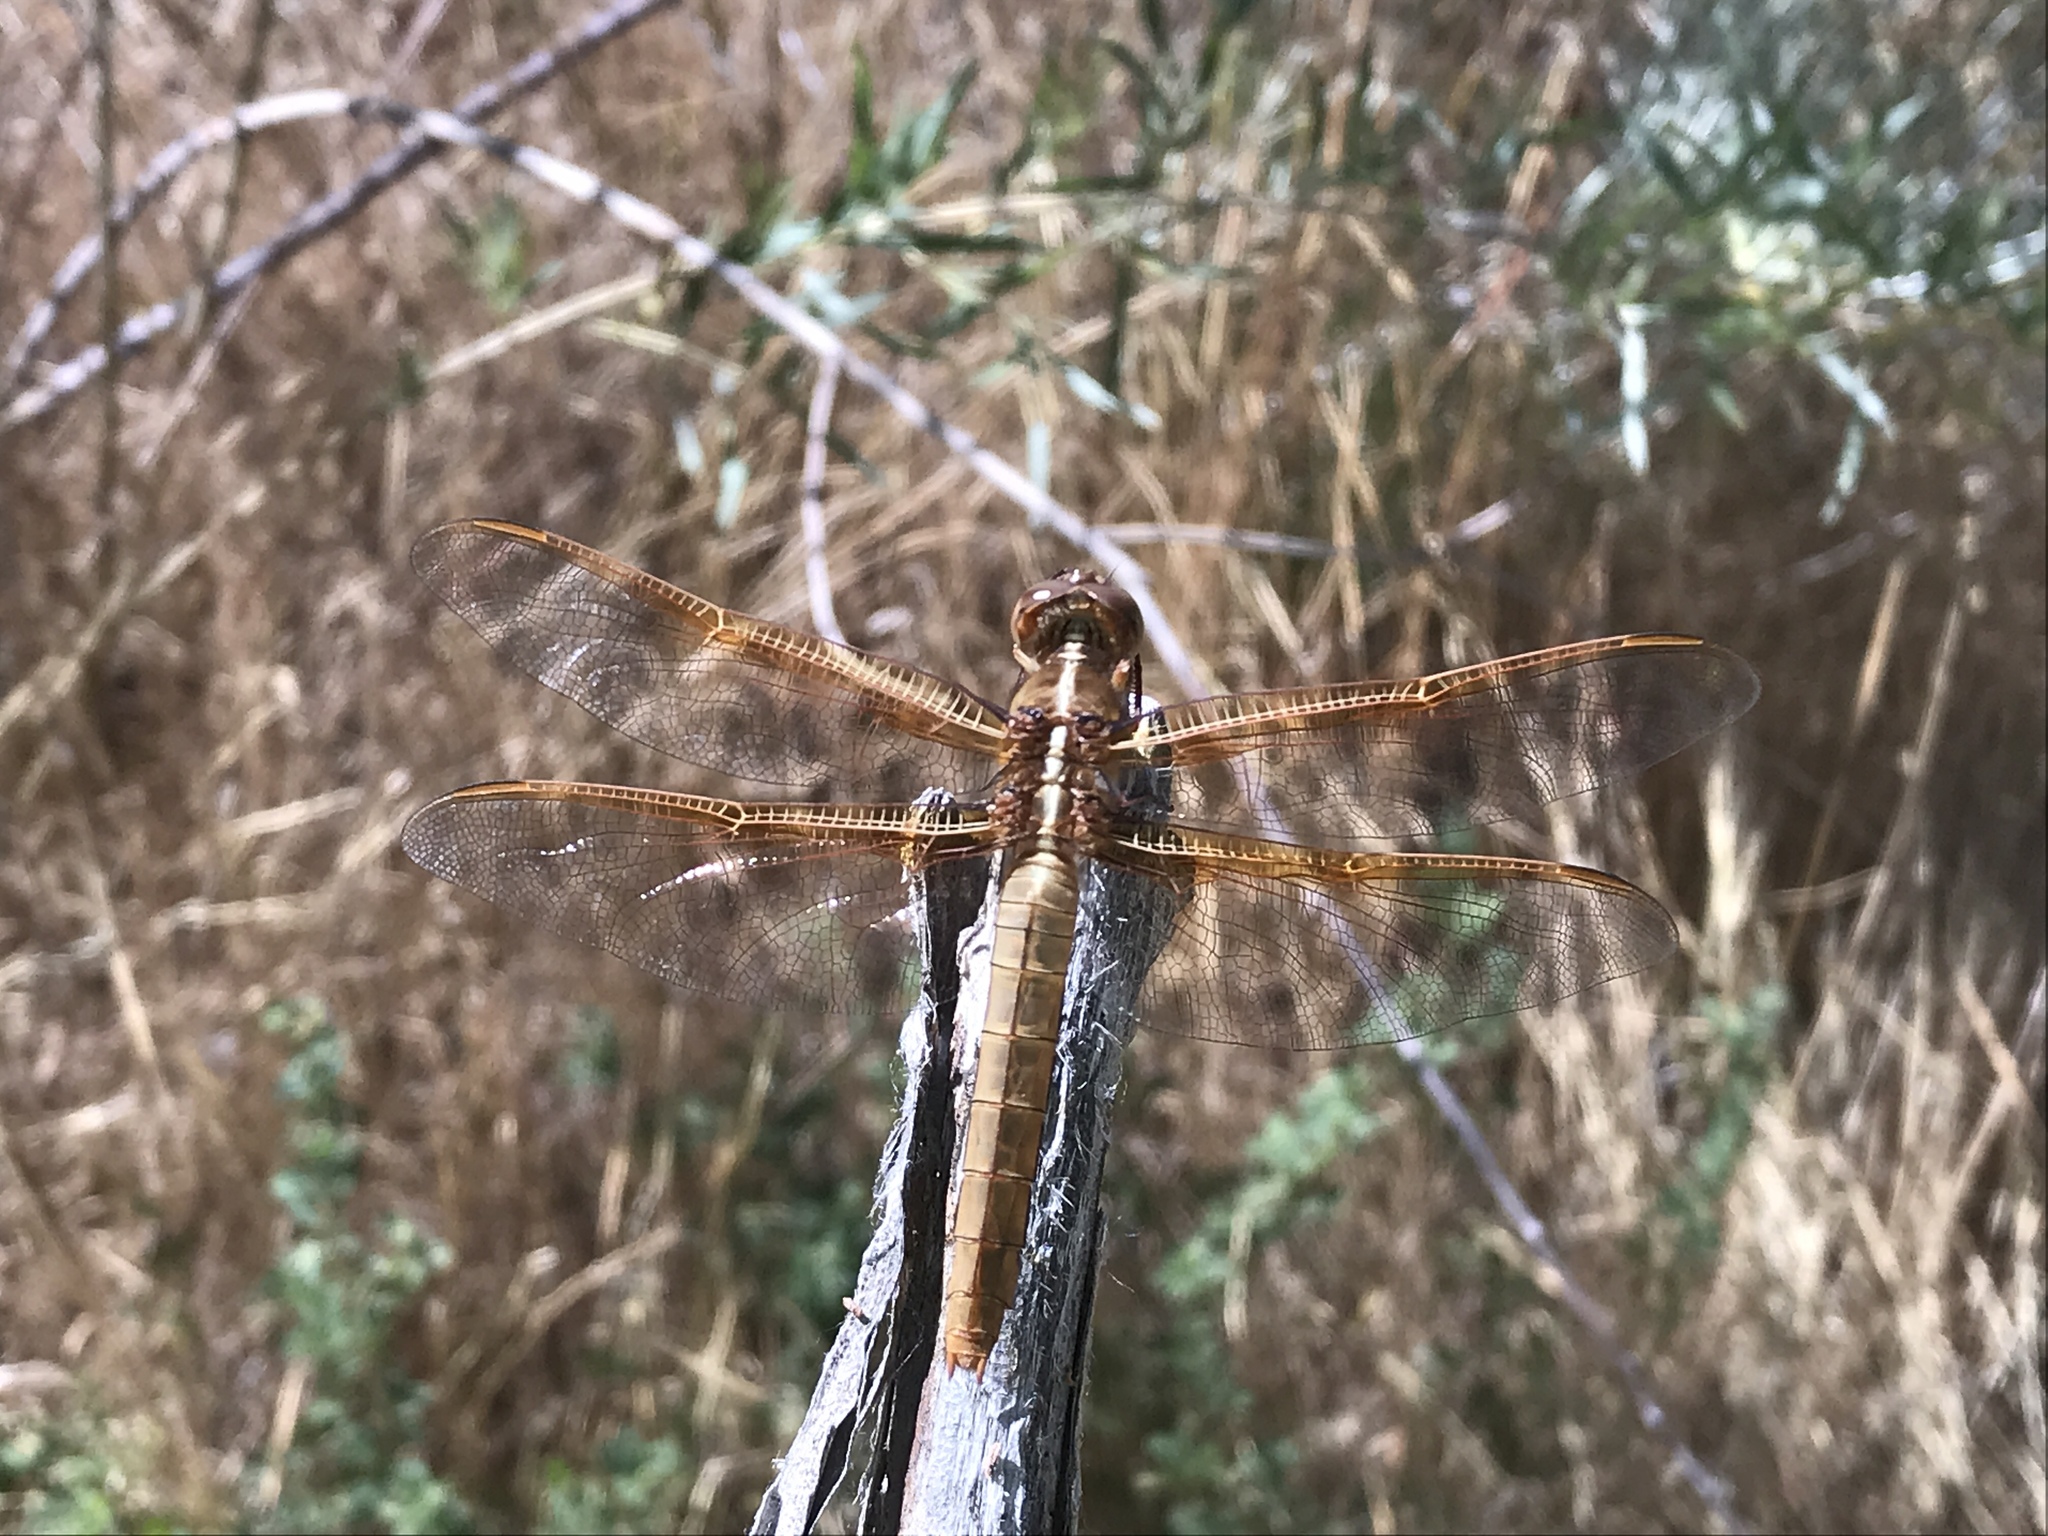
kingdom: Animalia
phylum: Arthropoda
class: Insecta
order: Odonata
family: Libellulidae
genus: Libellula
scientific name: Libellula saturata
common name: Flame skimmer
